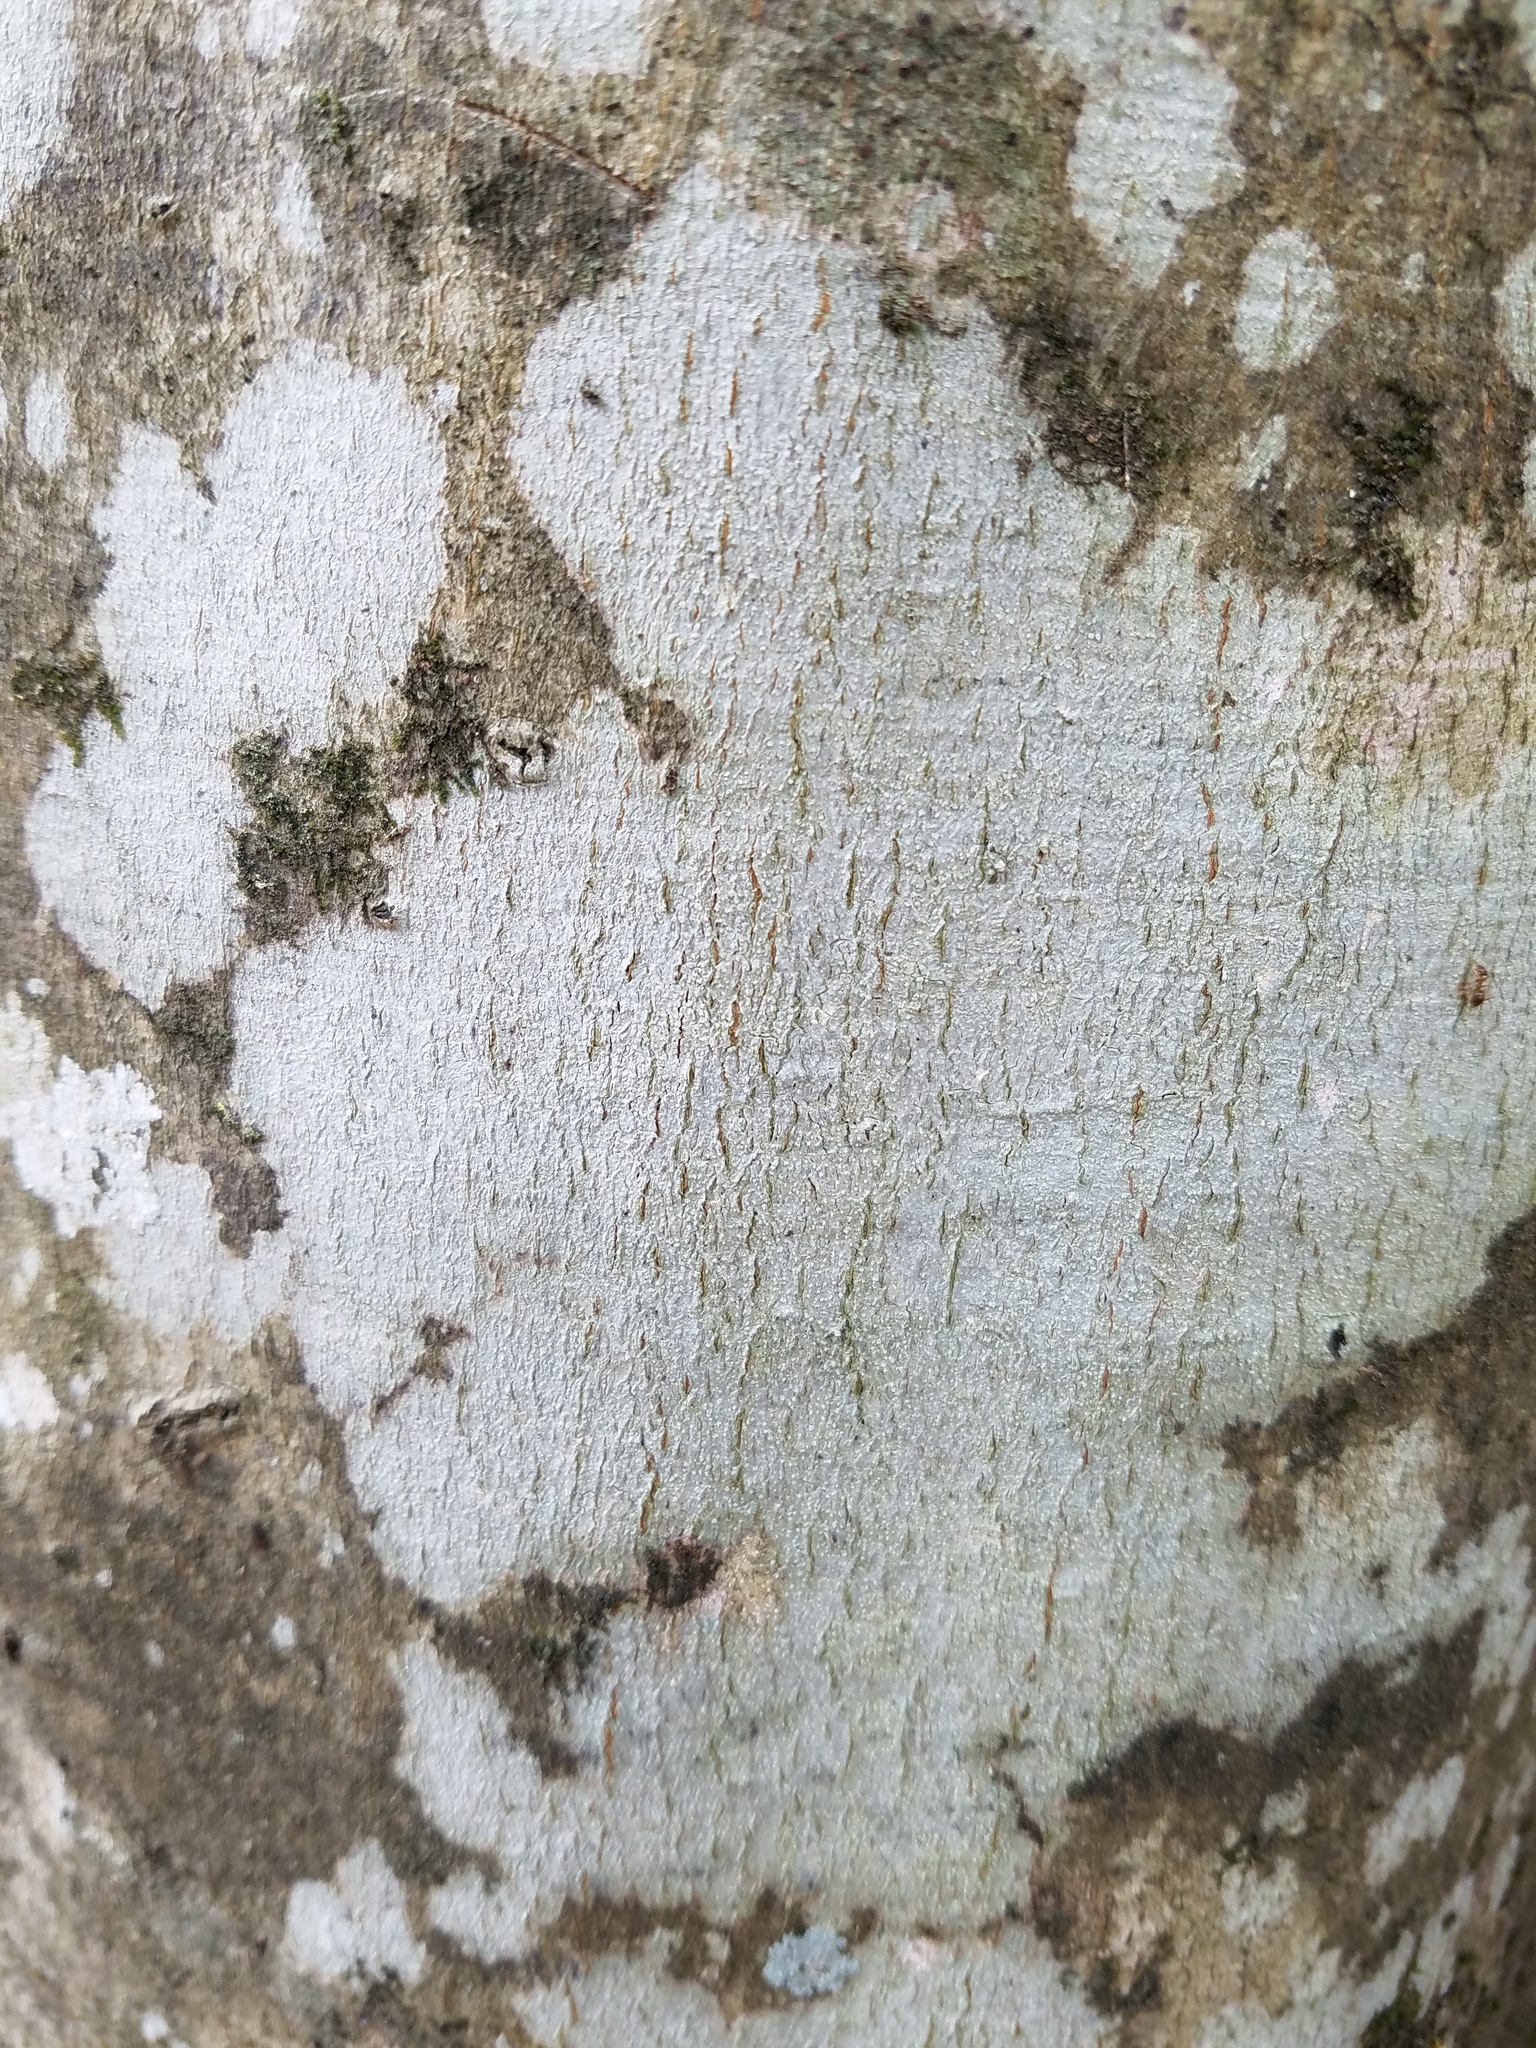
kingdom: Fungi
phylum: Ascomycota
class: Lecanoromycetes
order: Ostropales
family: Graphidaceae
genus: Nadvornikia
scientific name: Nadvornikia sorediata
